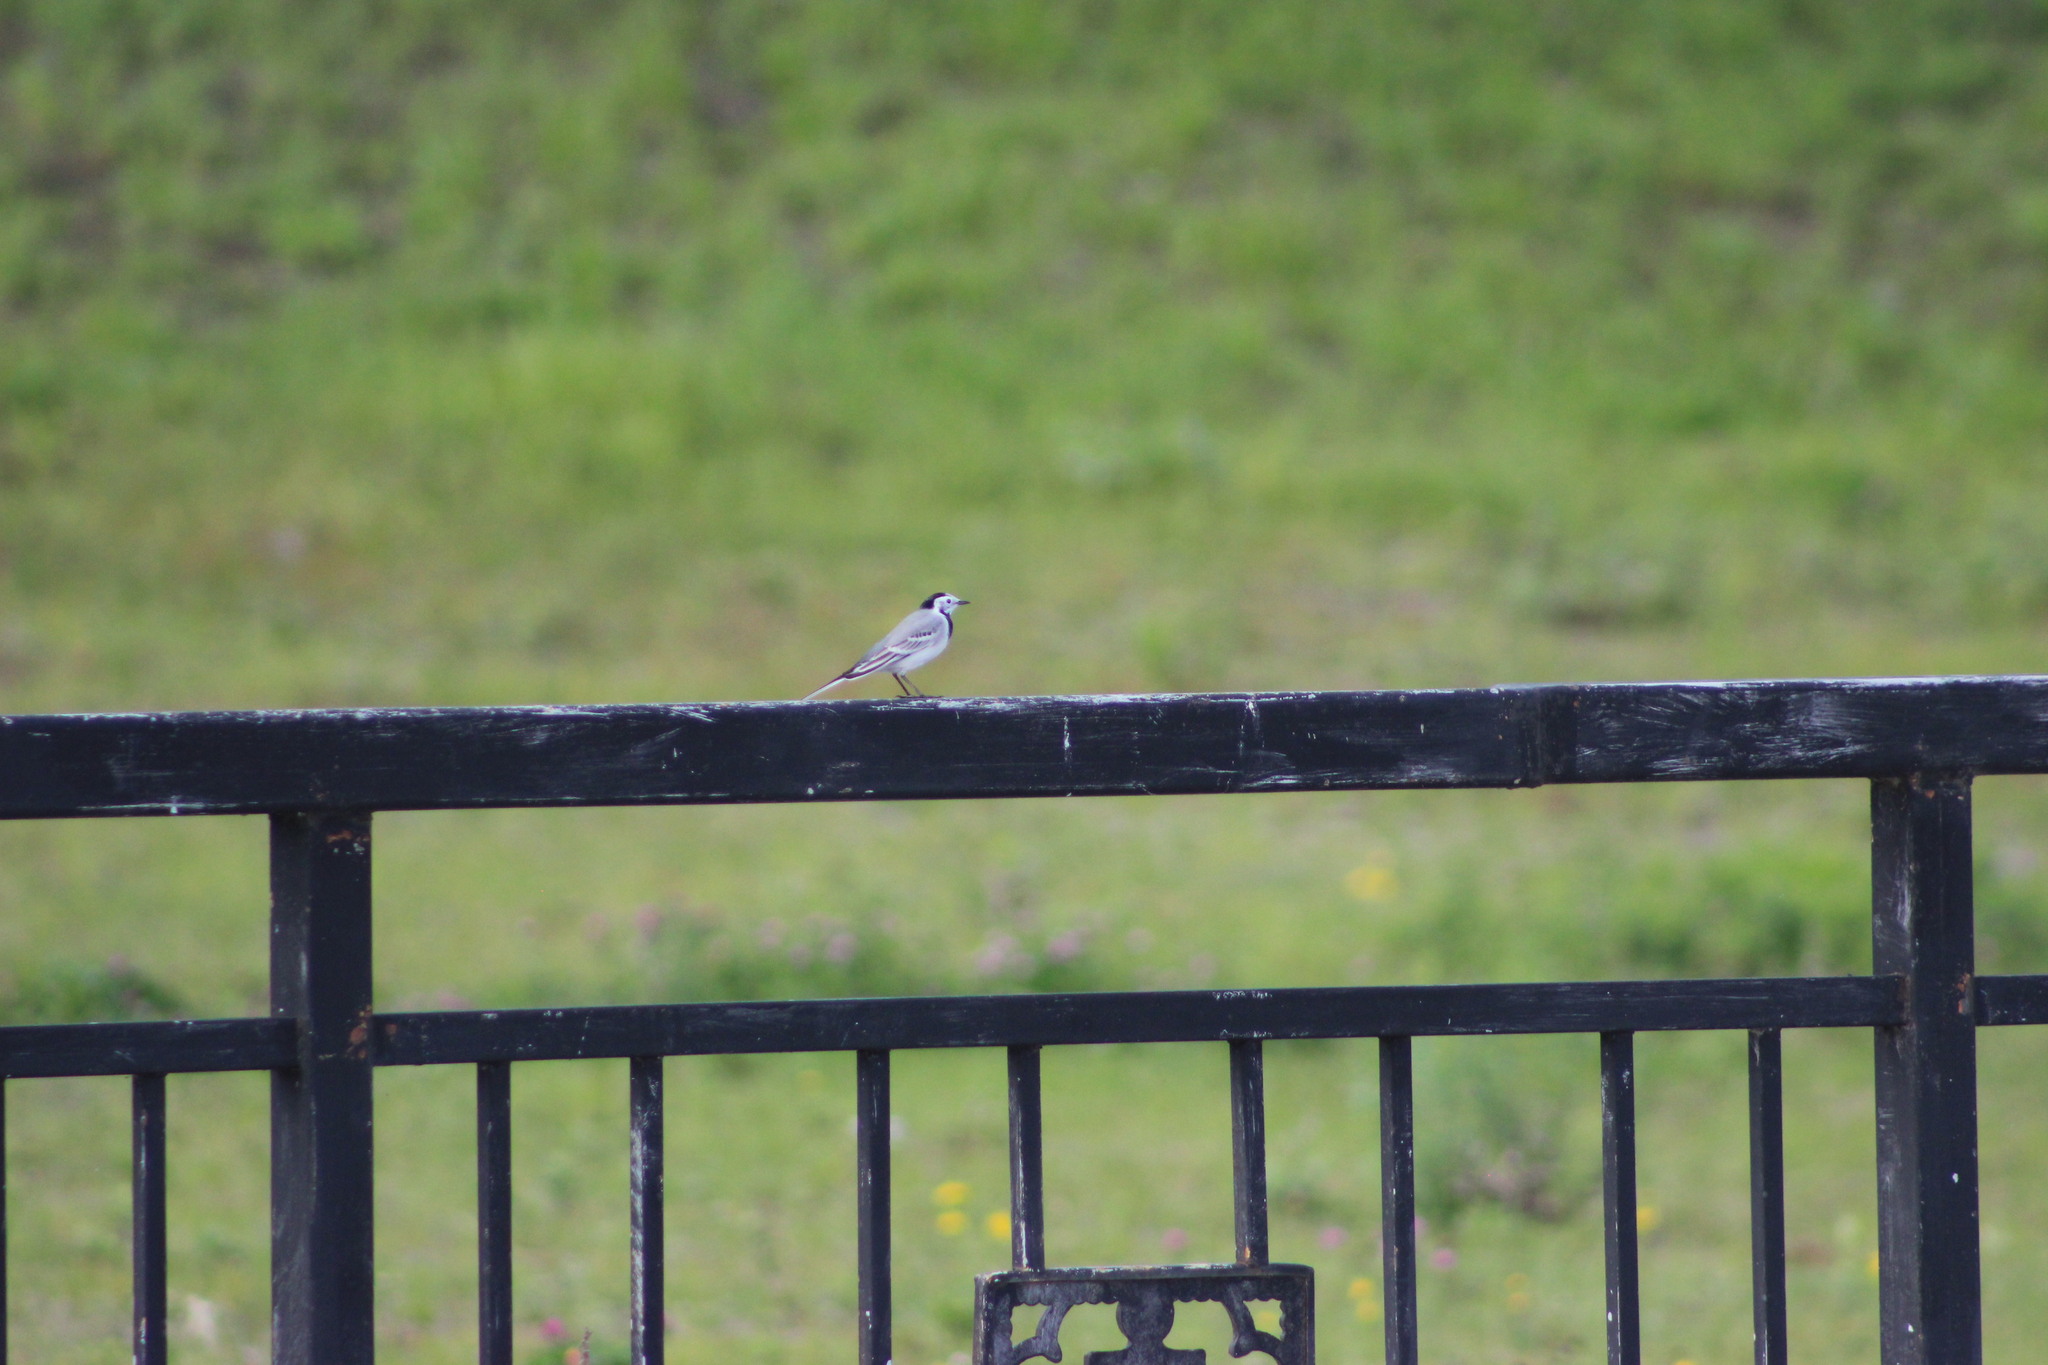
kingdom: Animalia
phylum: Chordata
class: Aves
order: Passeriformes
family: Motacillidae
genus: Motacilla
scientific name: Motacilla alba
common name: White wagtail
